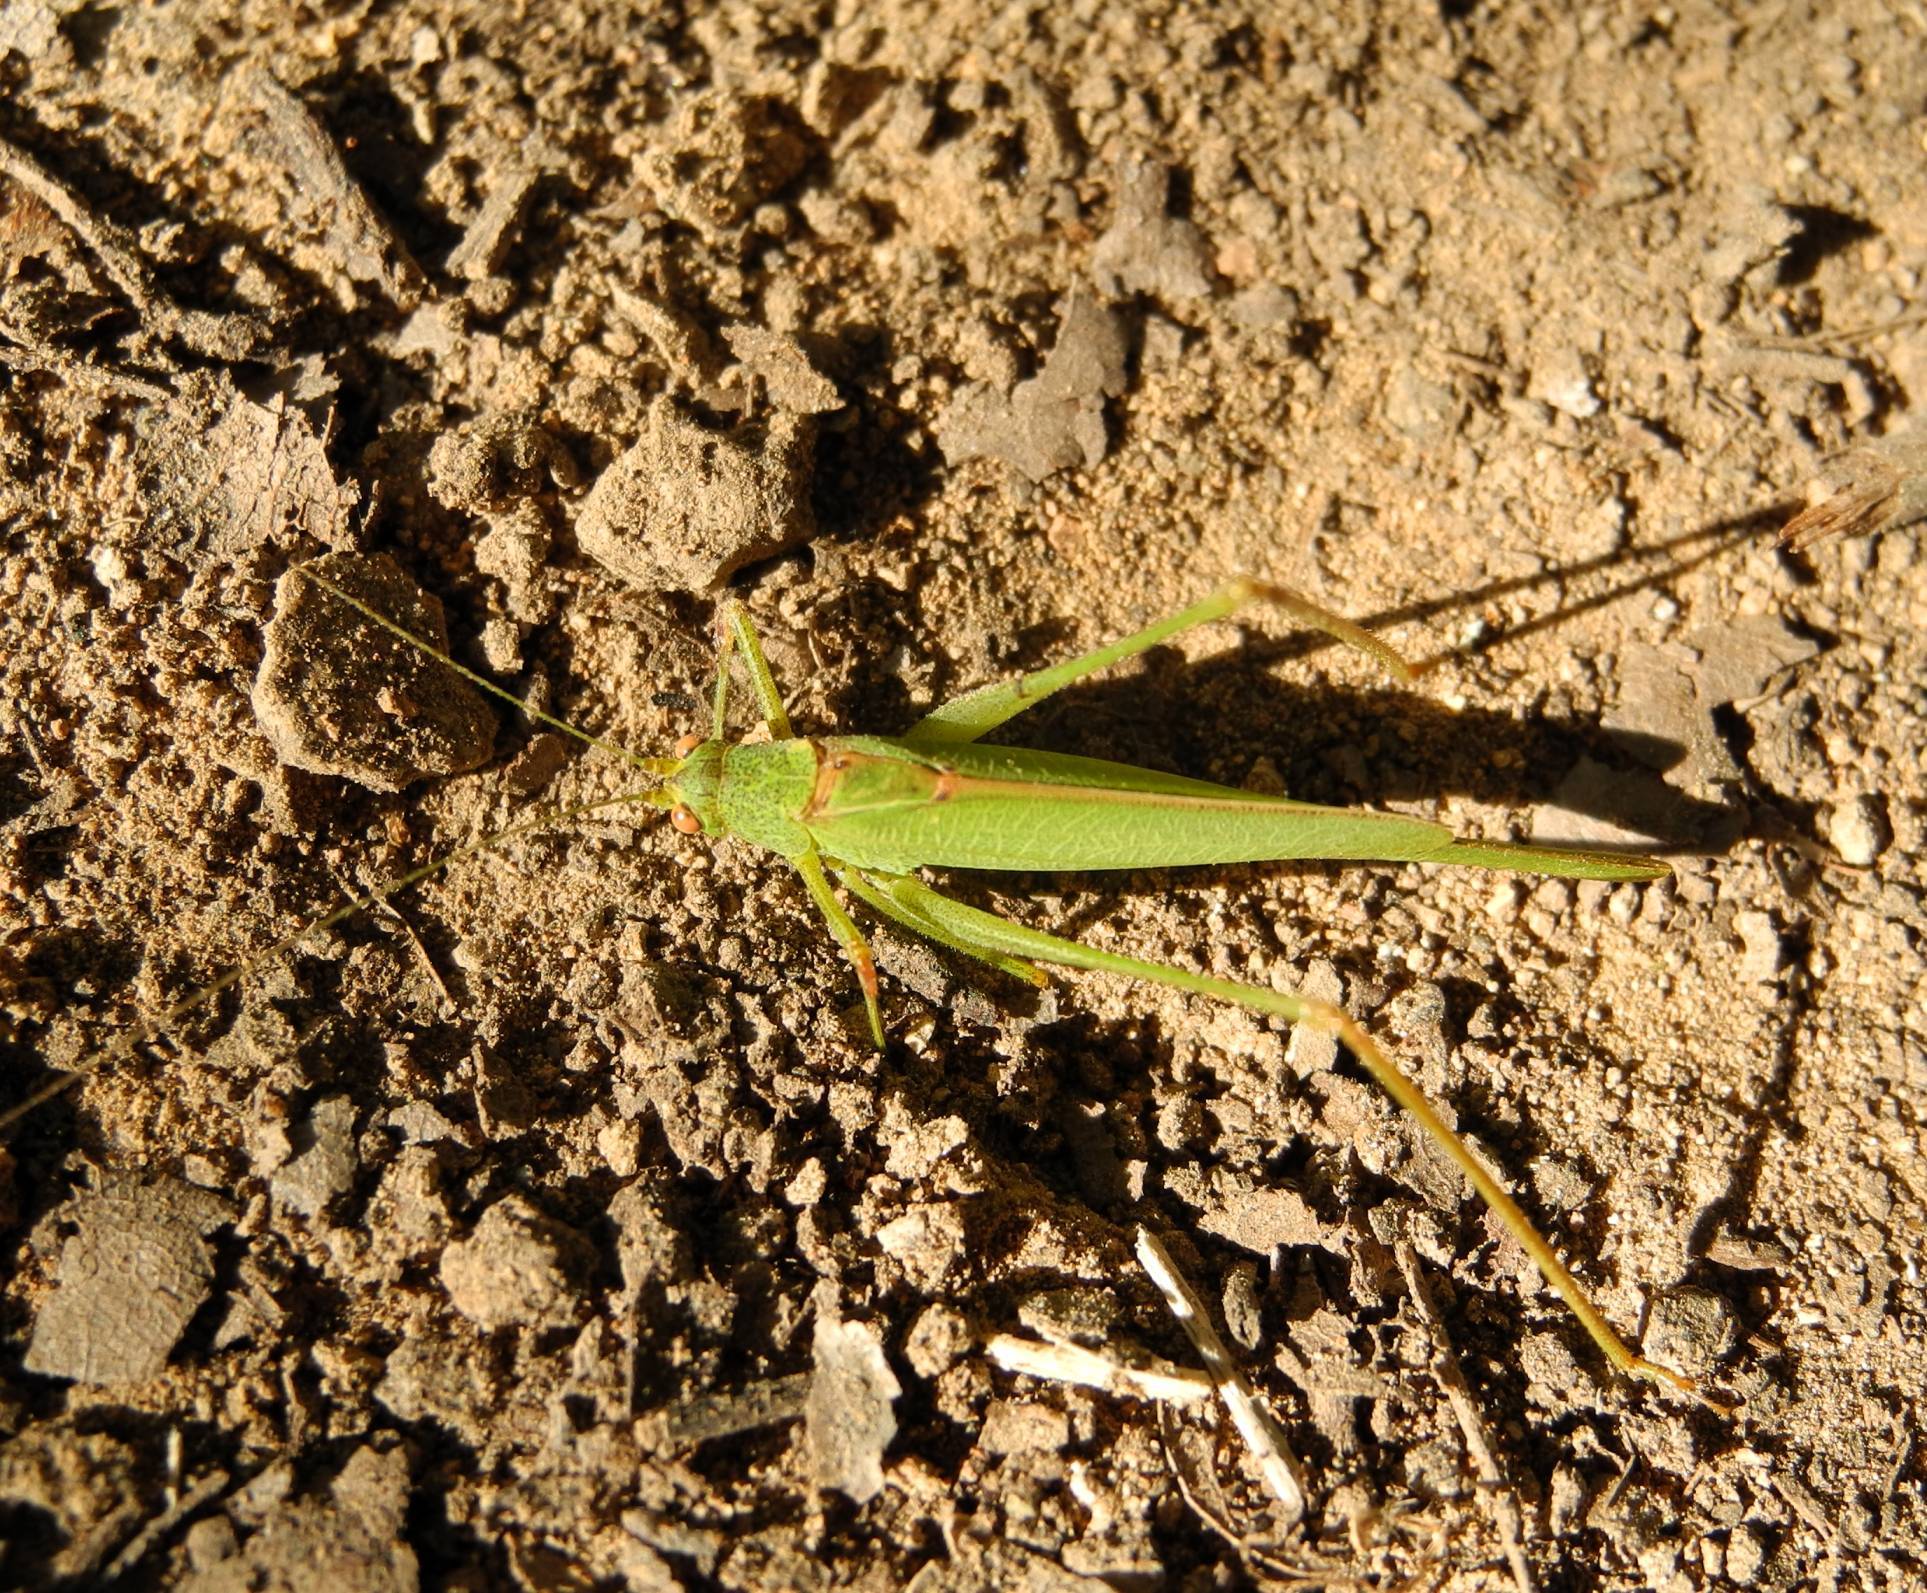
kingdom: Animalia
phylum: Arthropoda
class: Insecta
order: Orthoptera
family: Tettigoniidae
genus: Phaneroptera
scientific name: Phaneroptera nana
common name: Southern sickle bush-cricket
